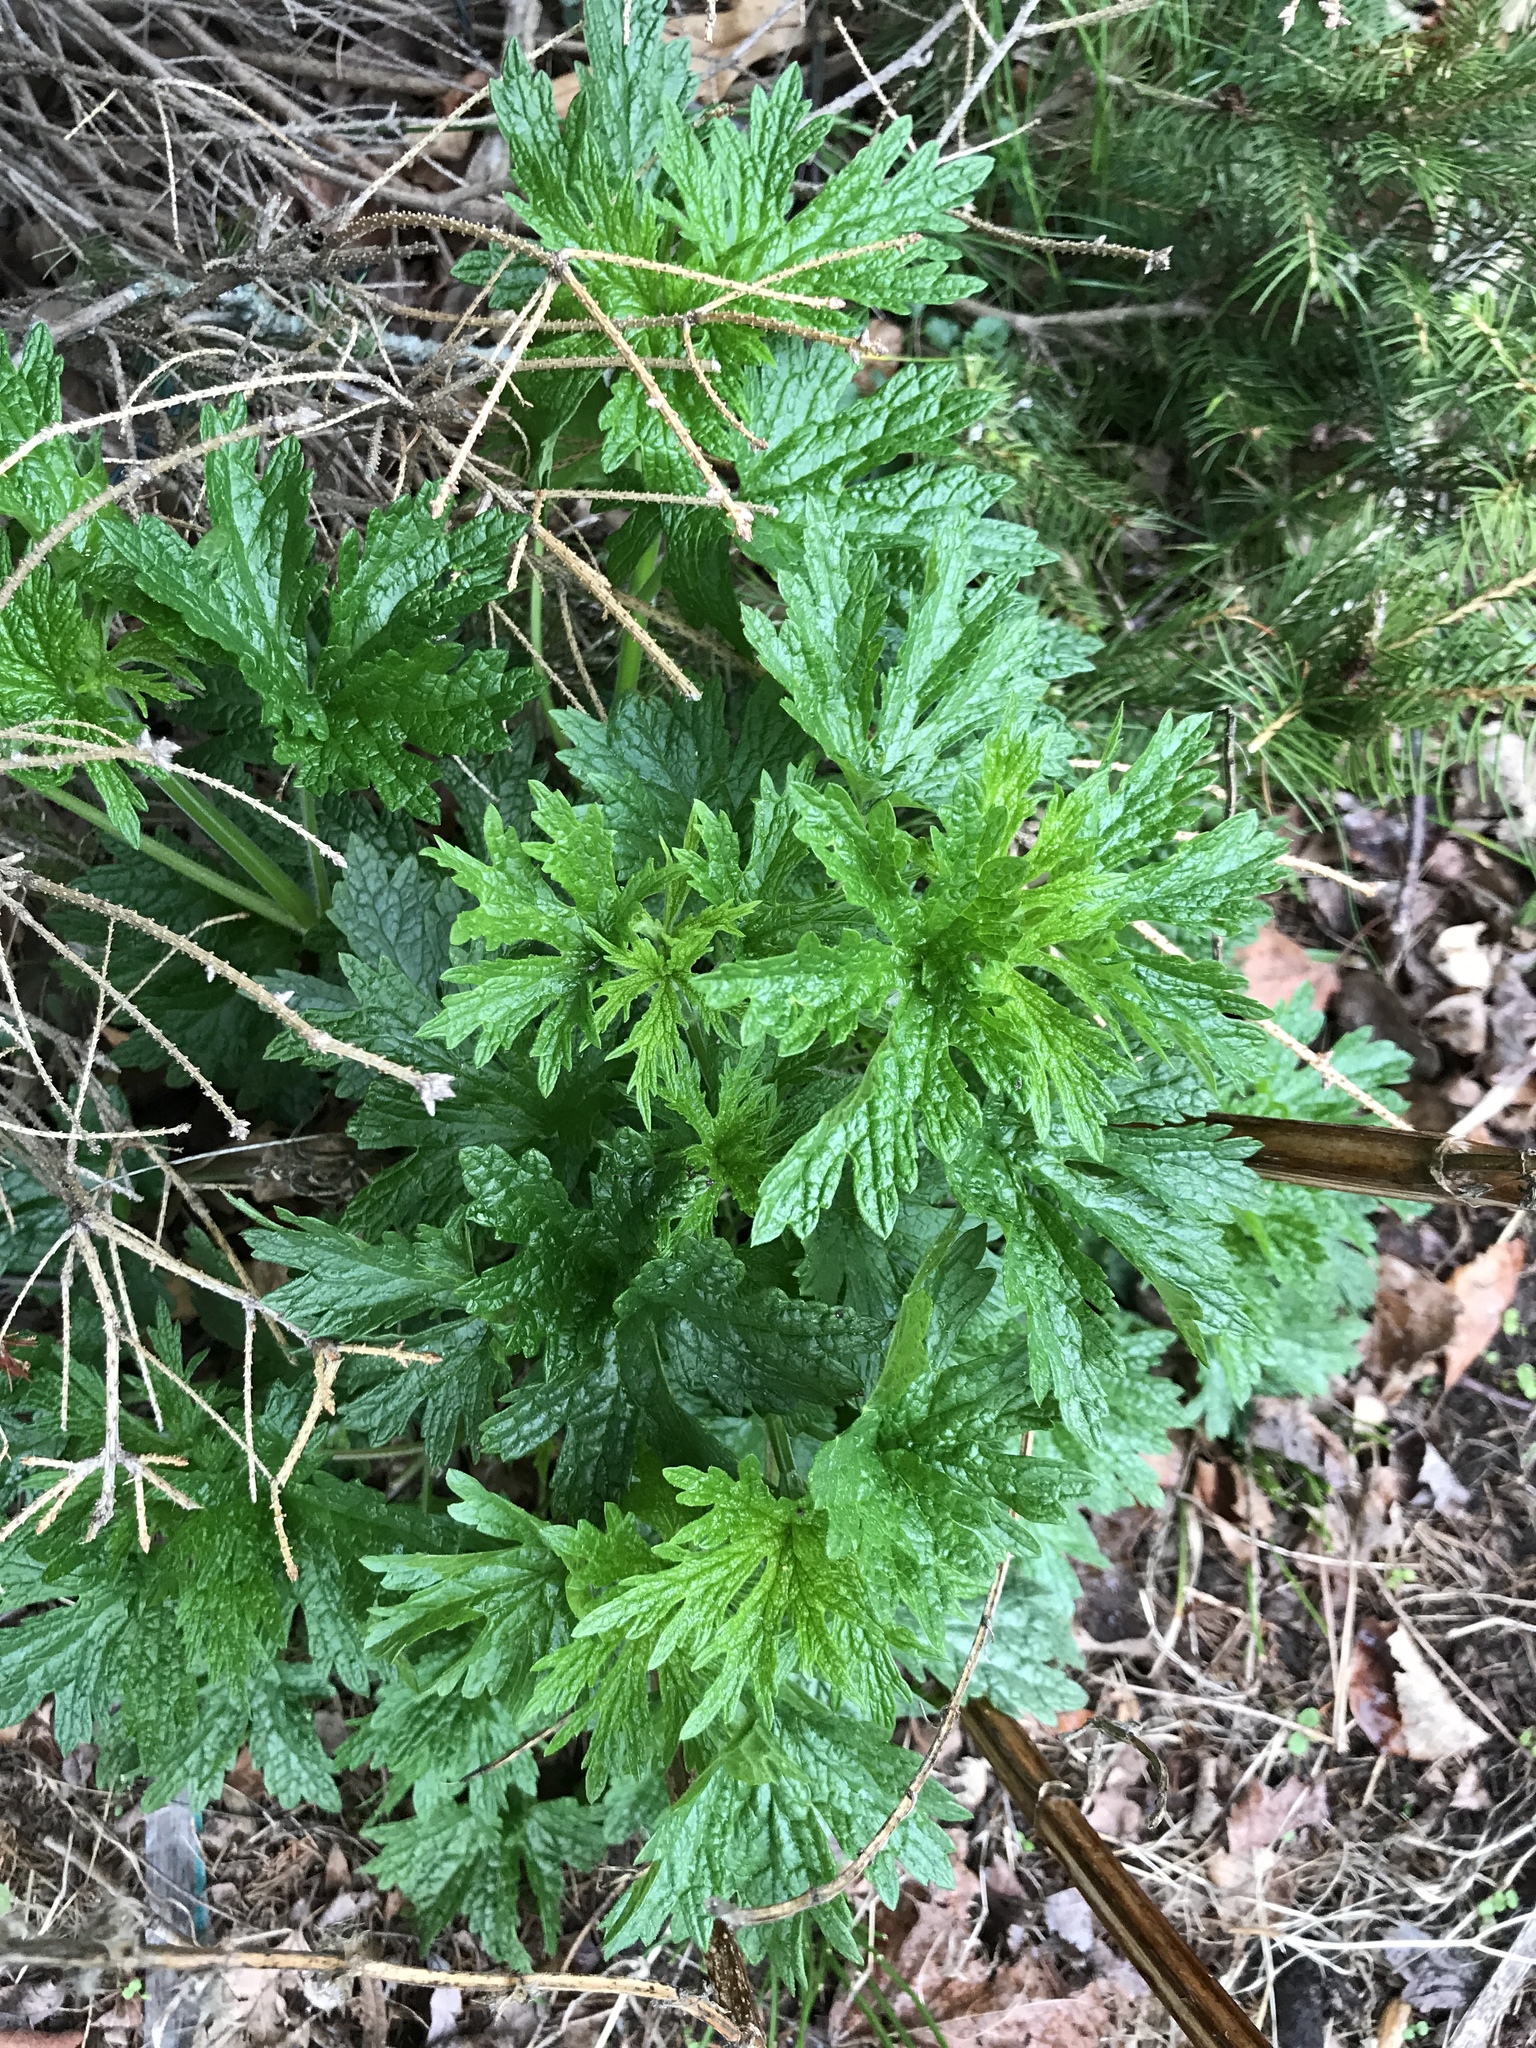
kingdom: Plantae
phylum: Tracheophyta
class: Magnoliopsida
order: Lamiales
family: Lamiaceae
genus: Leonurus
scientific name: Leonurus cardiaca
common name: Motherwort
